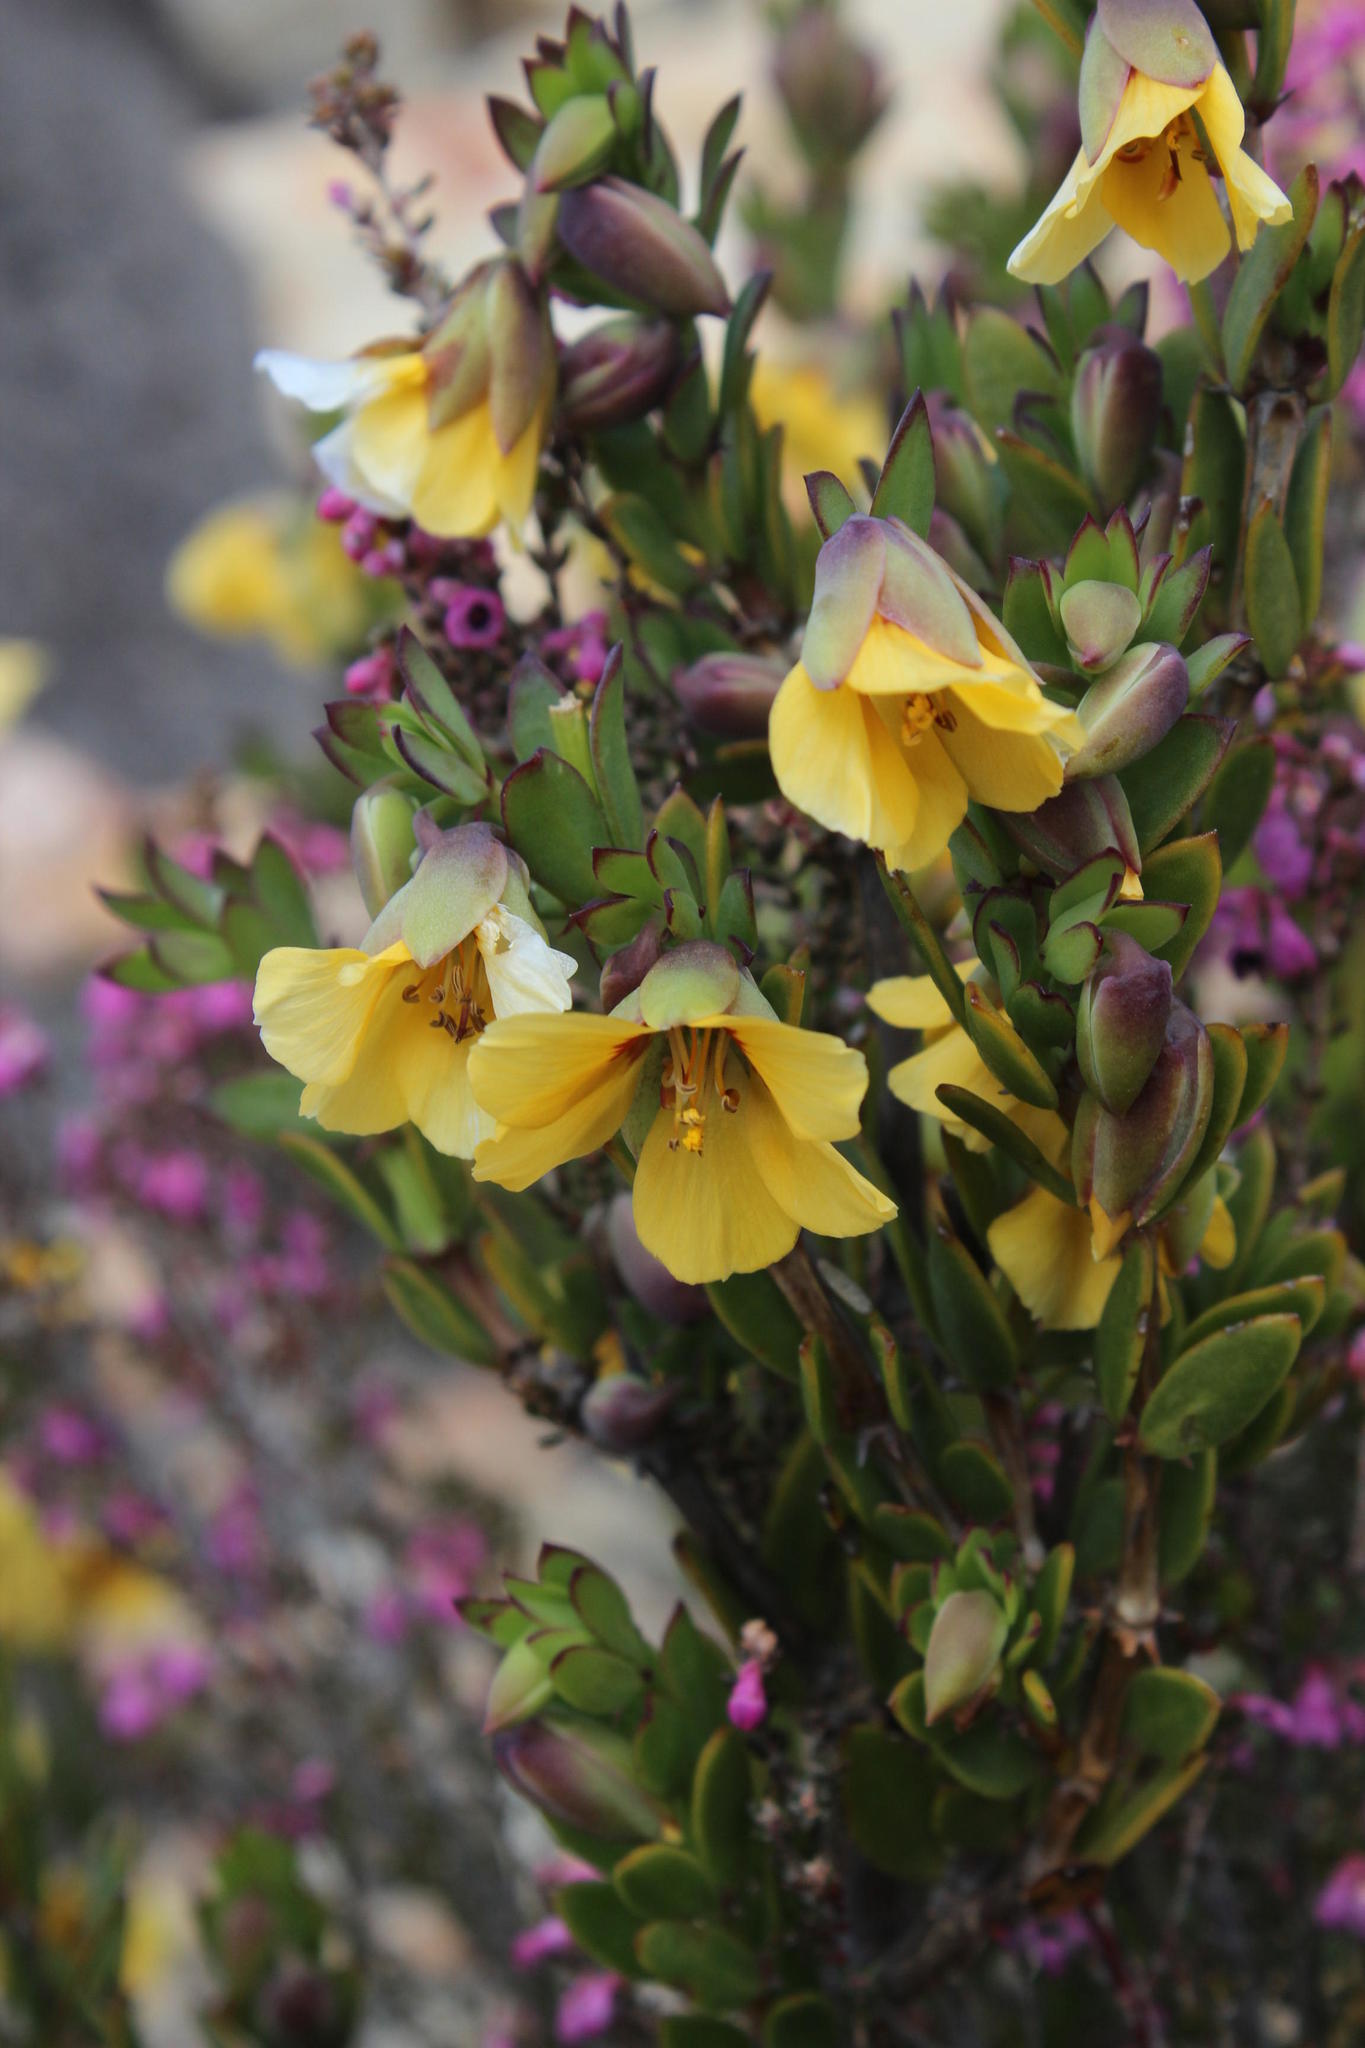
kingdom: Plantae
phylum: Tracheophyta
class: Magnoliopsida
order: Zygophyllales
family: Zygophyllaceae
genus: Roepera
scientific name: Roepera fulva
